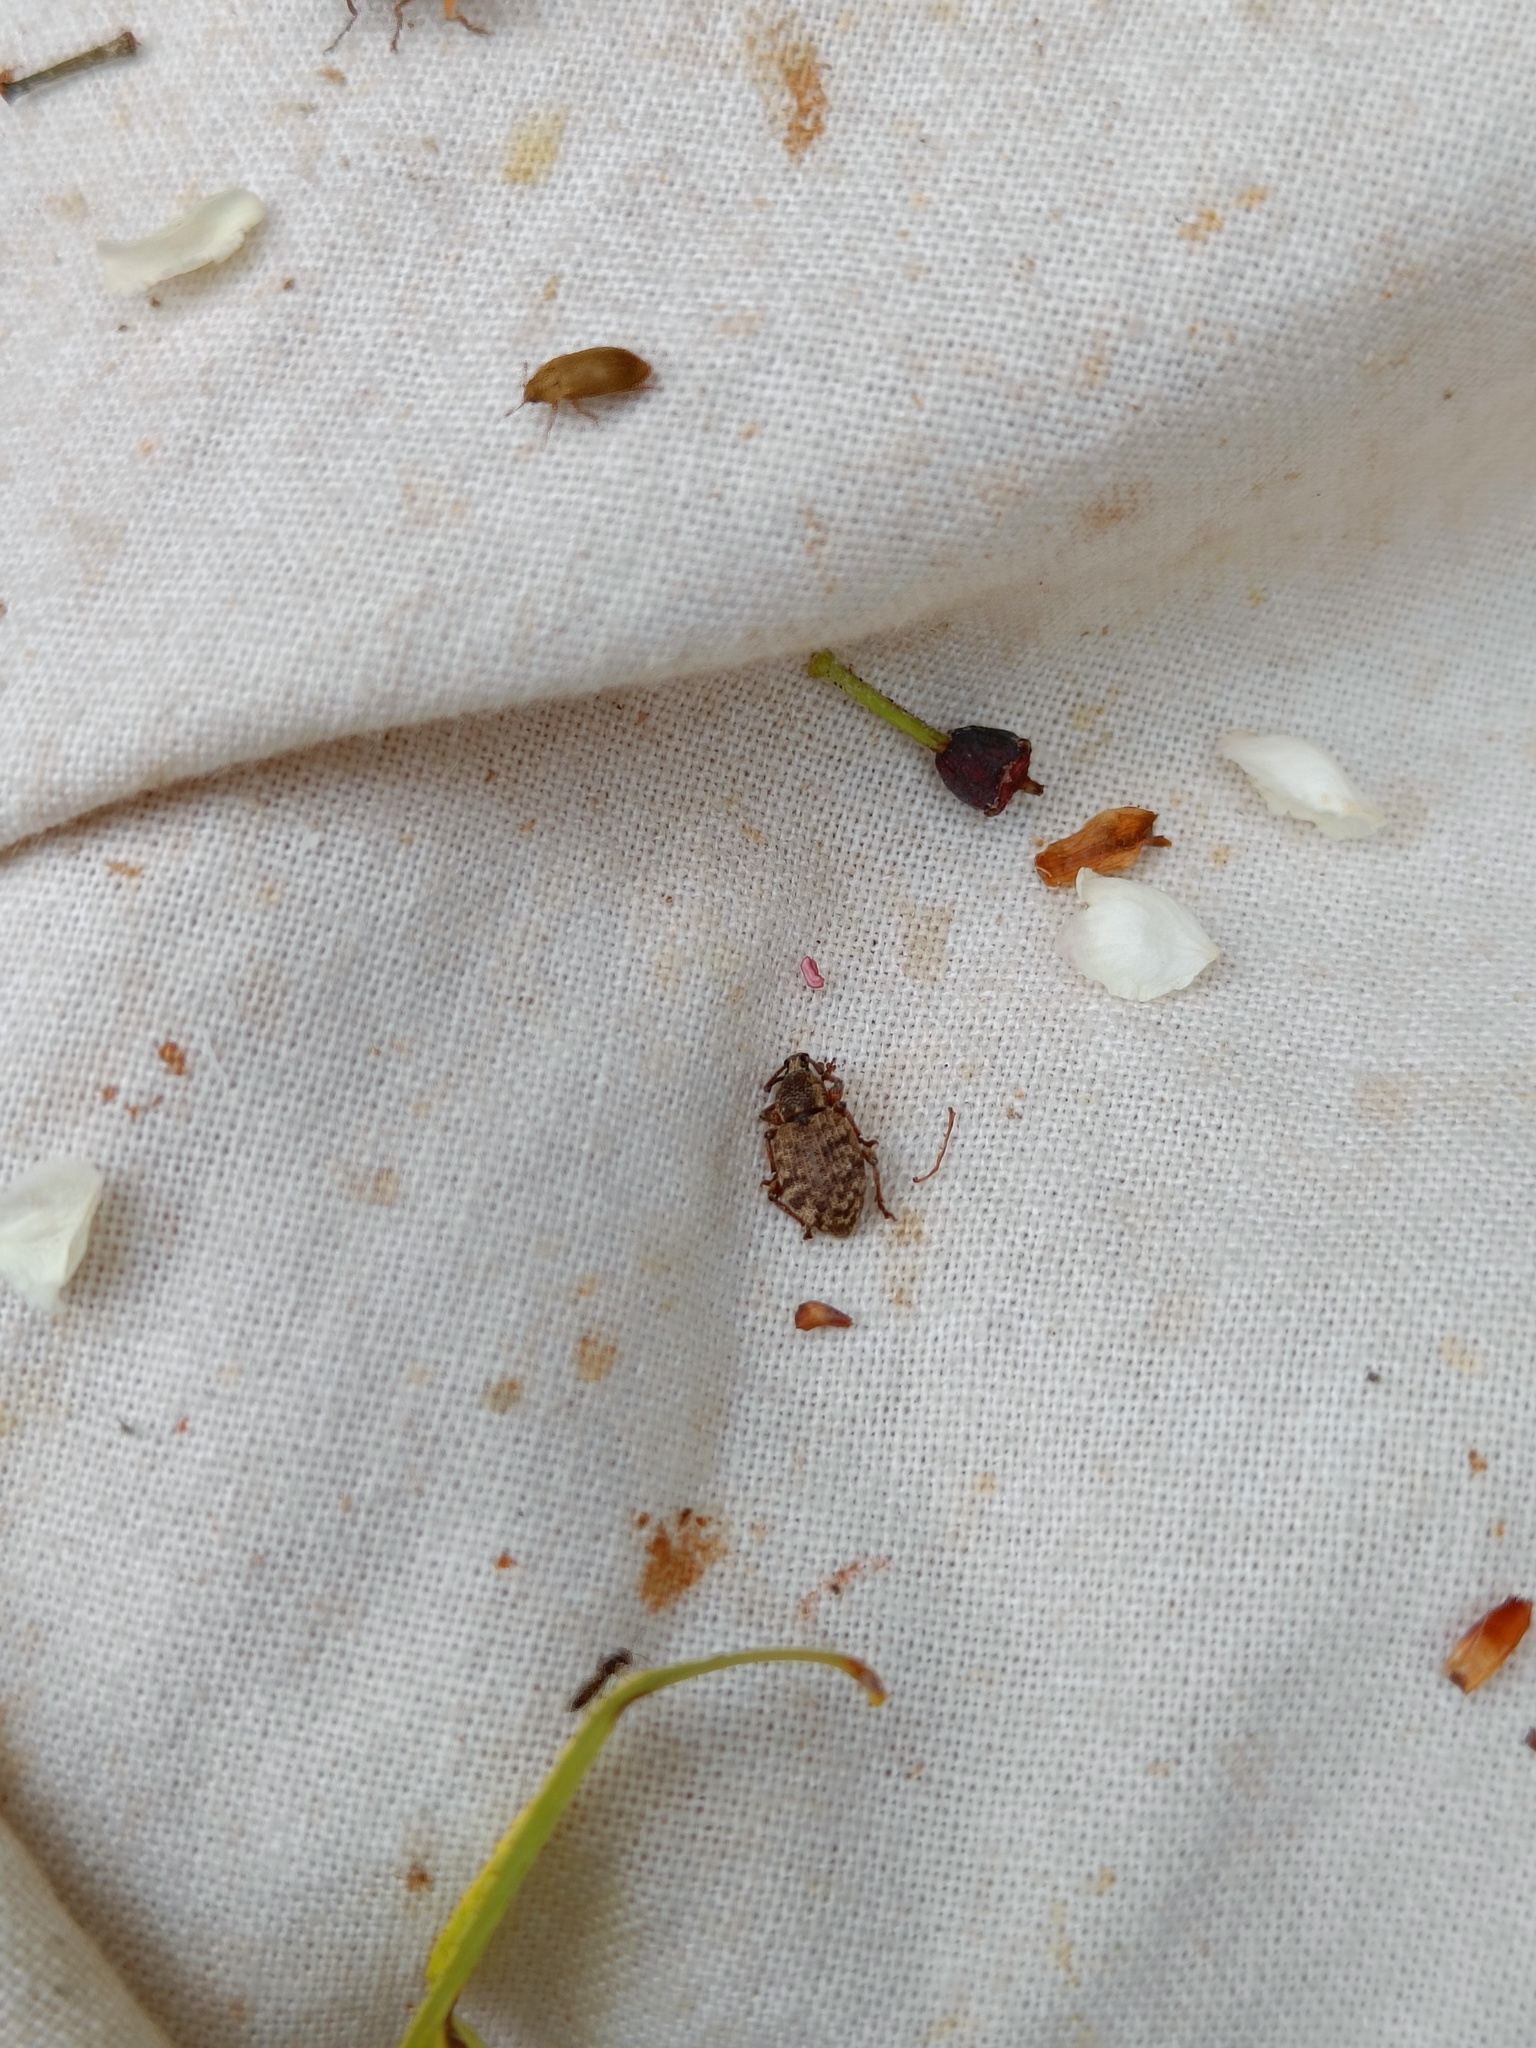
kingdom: Animalia
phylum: Arthropoda
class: Insecta
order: Coleoptera
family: Curculionidae
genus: Otiorhynchus
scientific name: Otiorhynchus singularis
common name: Clay-coloured weevil
